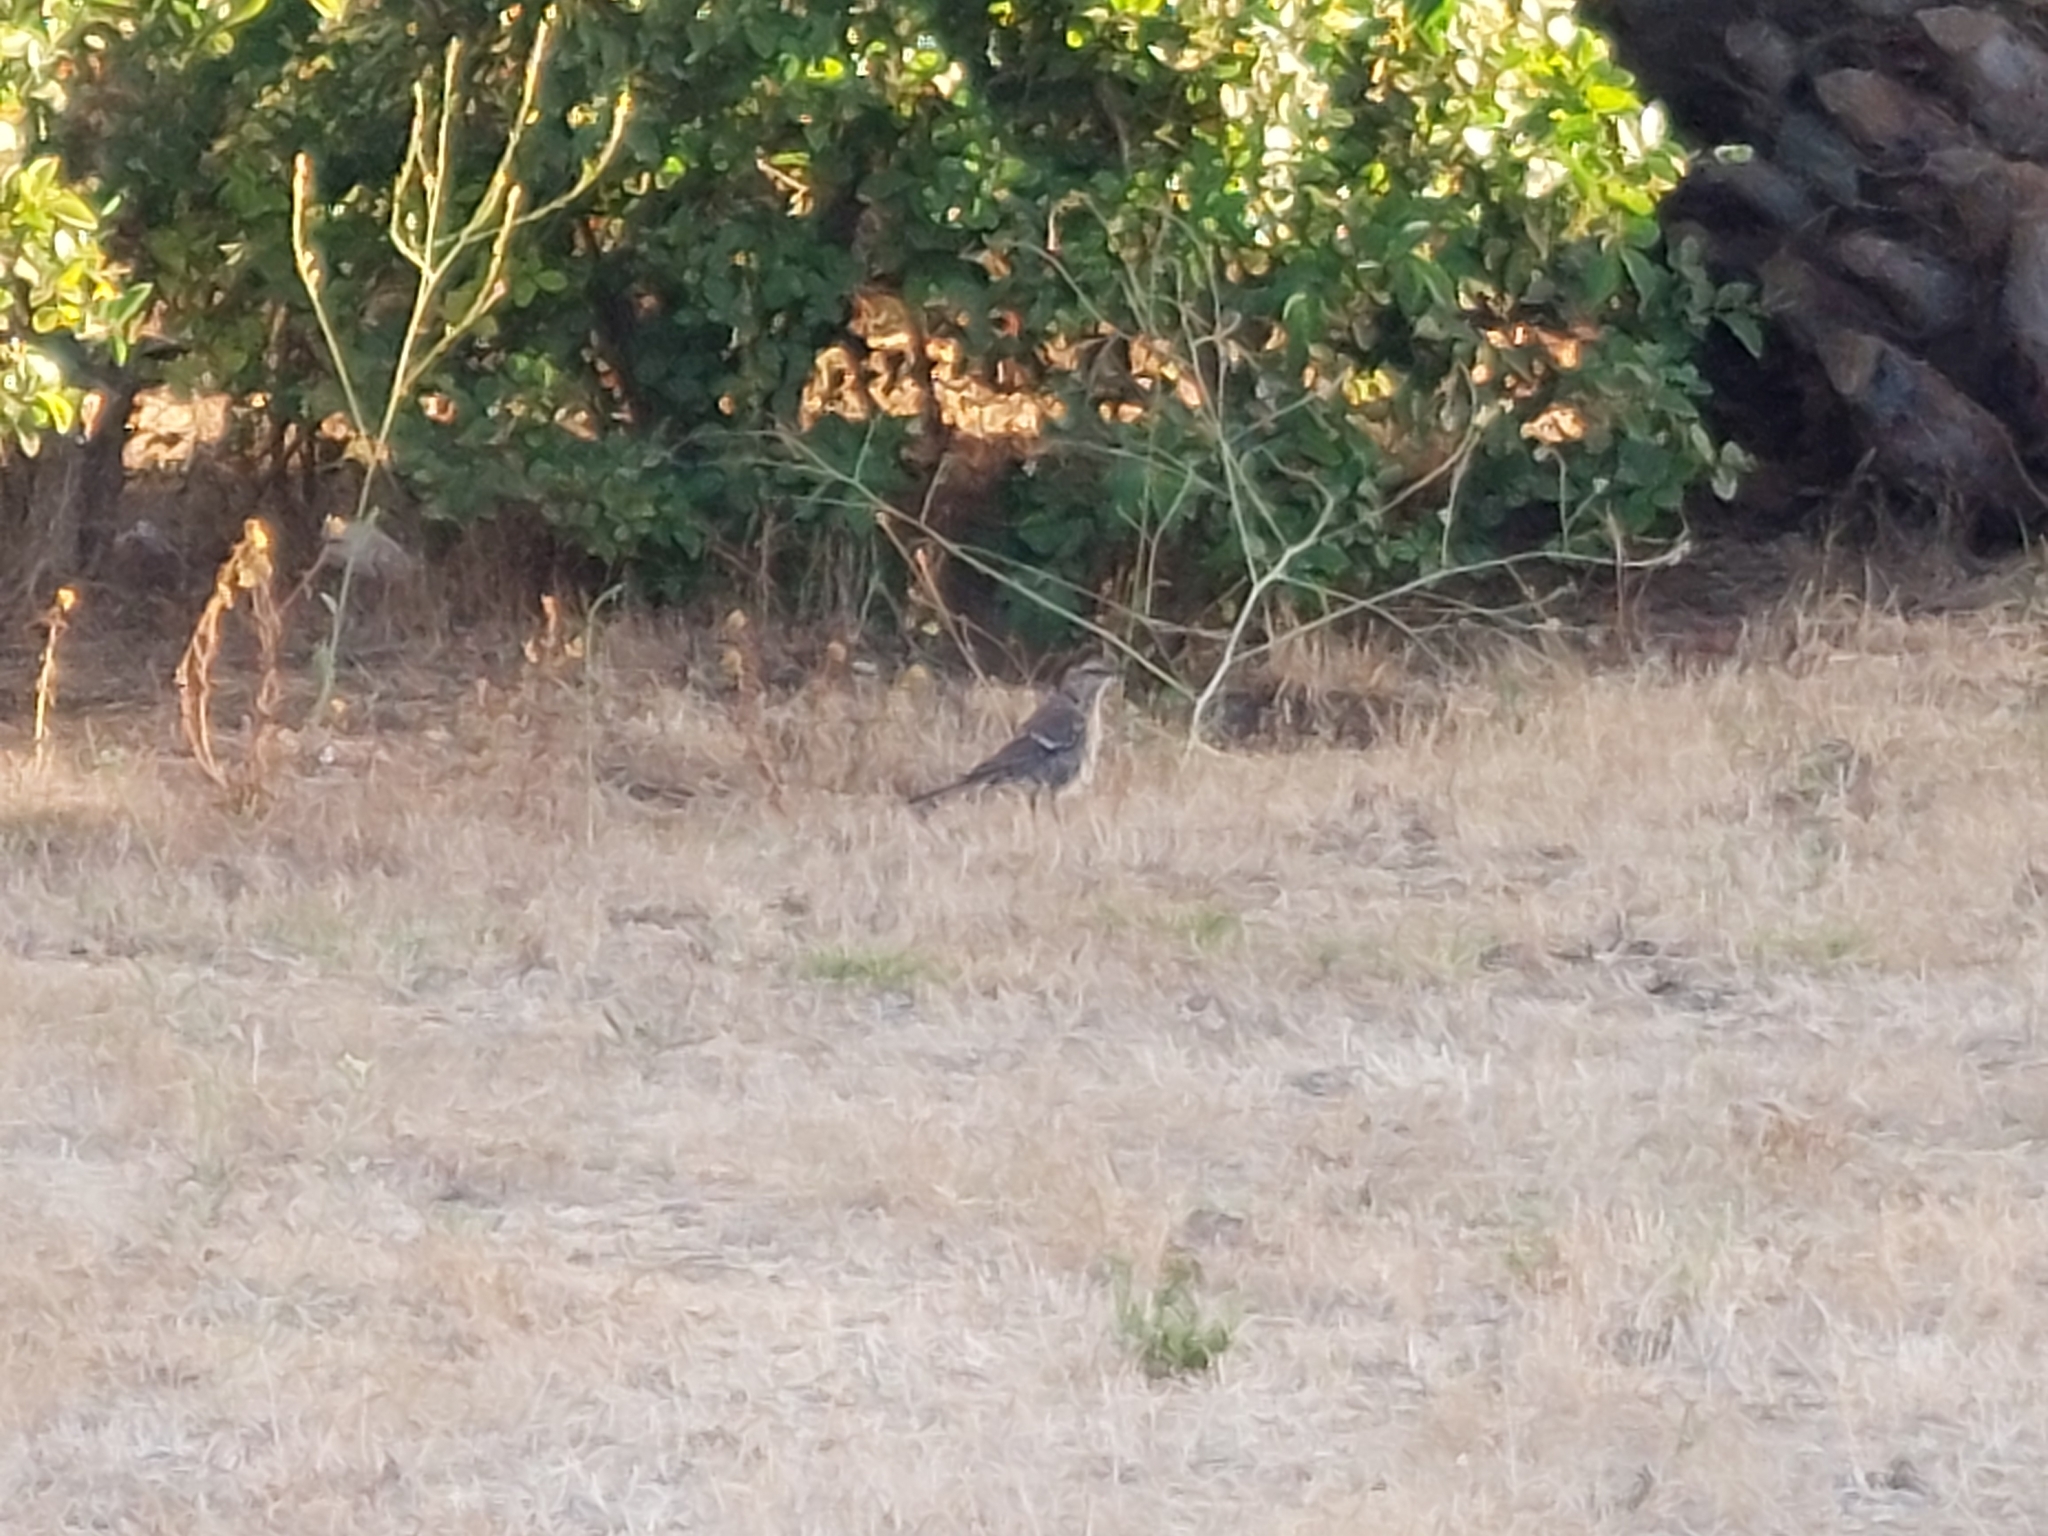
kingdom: Animalia
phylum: Chordata
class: Aves
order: Passeriformes
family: Mimidae
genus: Mimus
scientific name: Mimus thenca
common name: Chilean mockingbird
